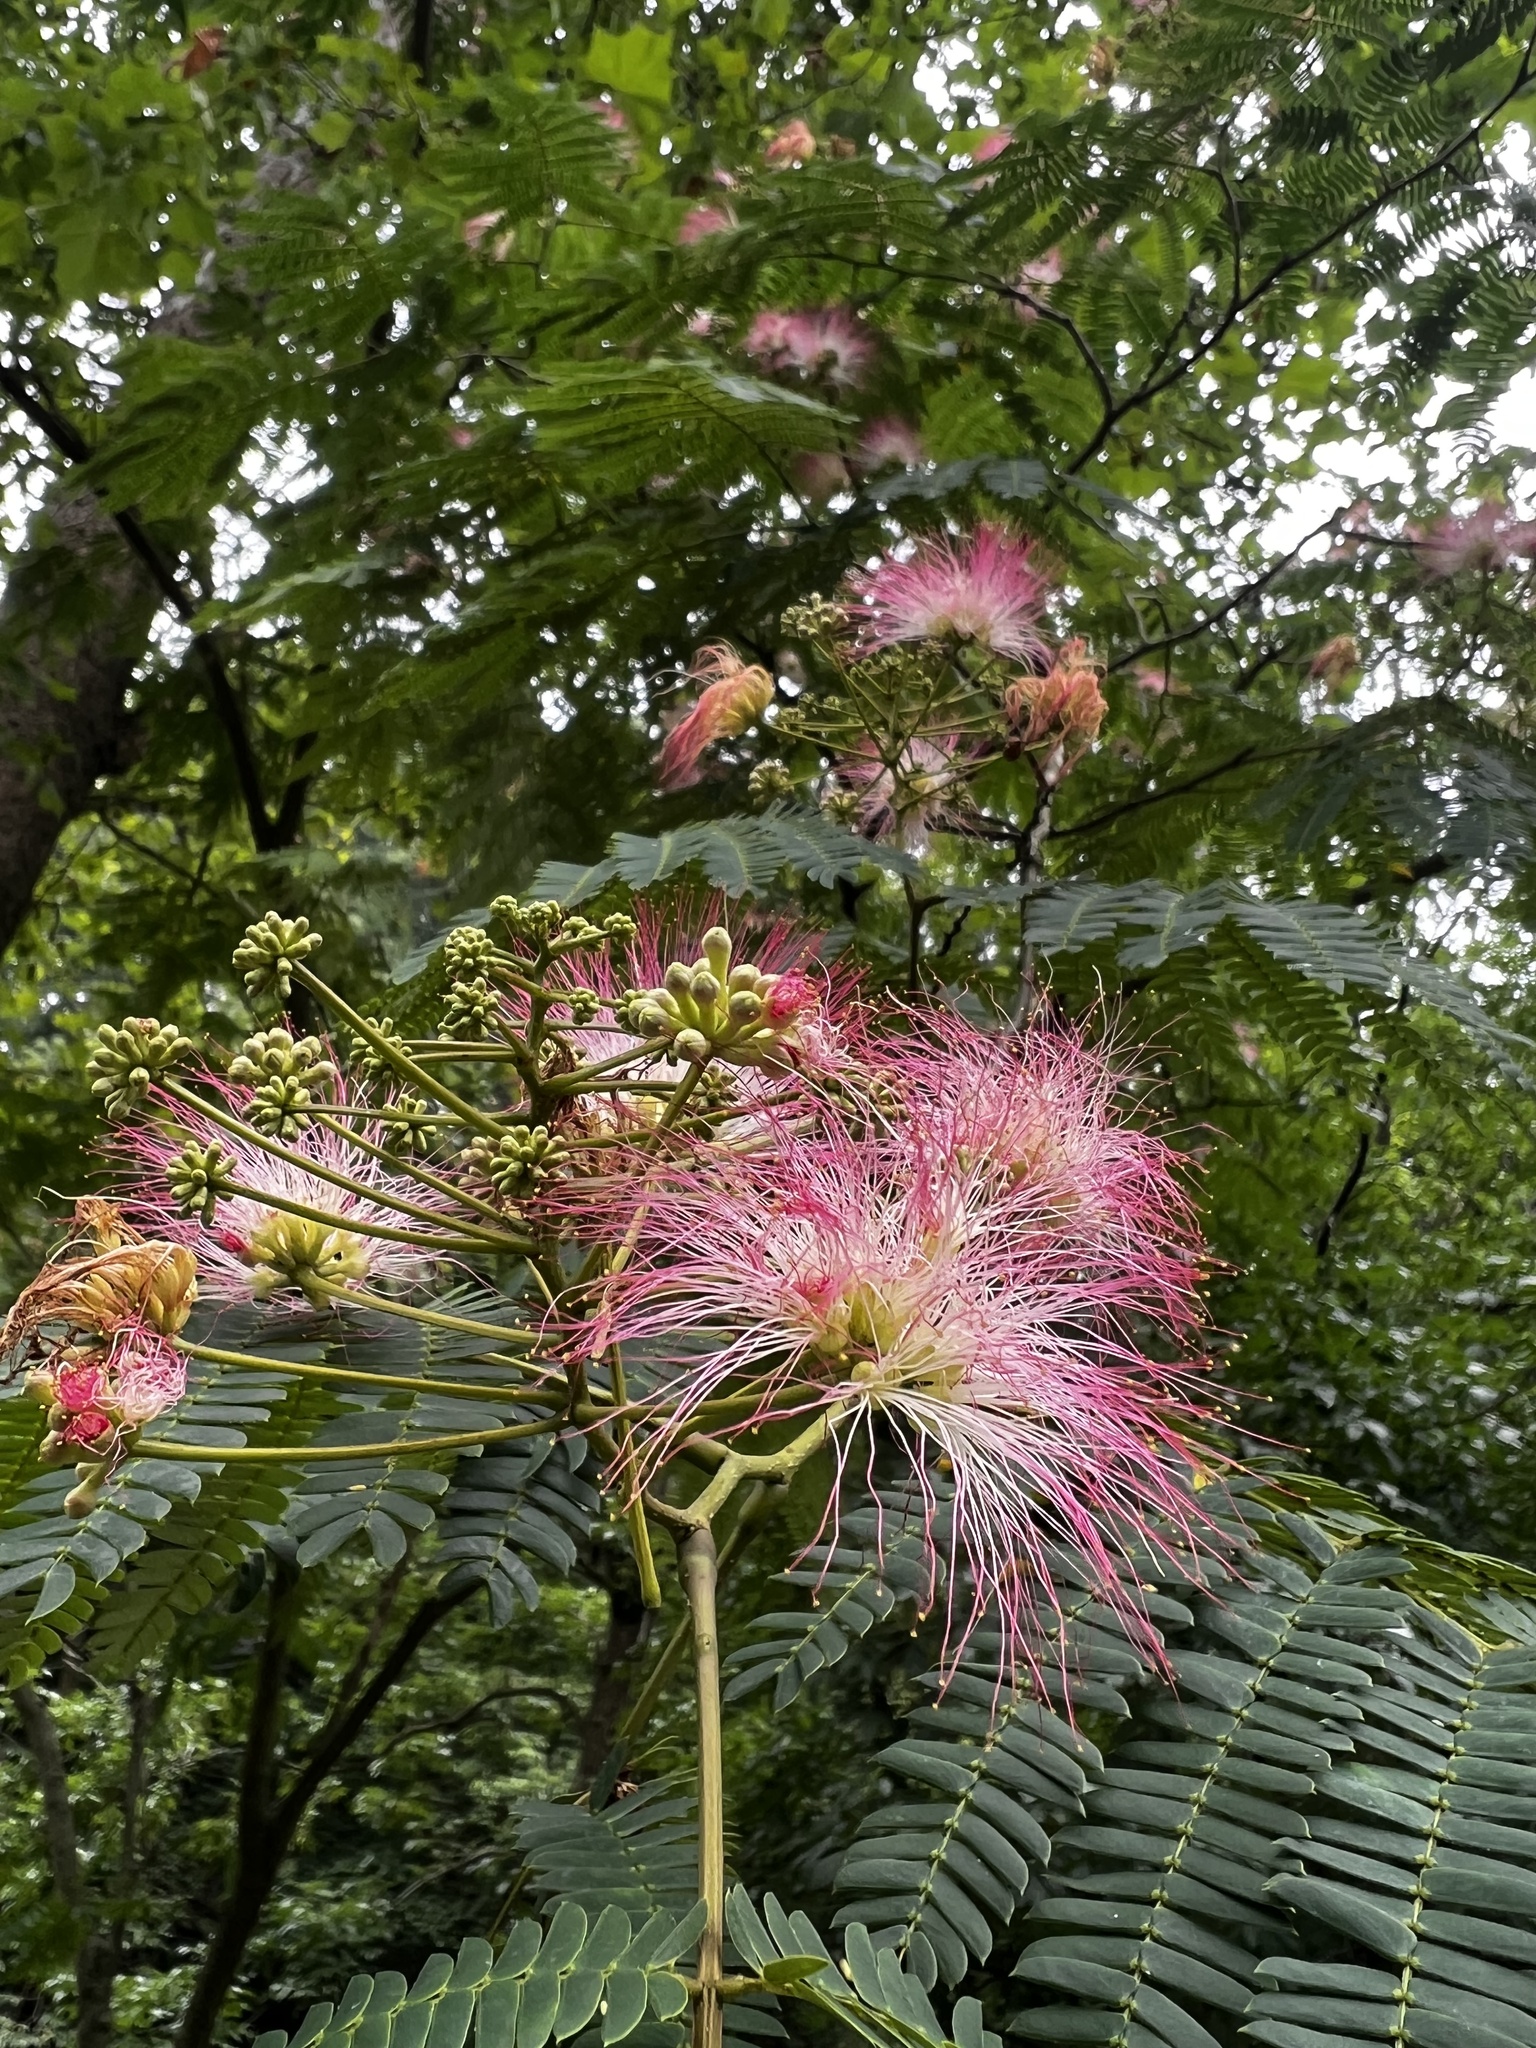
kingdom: Plantae
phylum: Tracheophyta
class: Magnoliopsida
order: Fabales
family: Fabaceae
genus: Albizia
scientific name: Albizia julibrissin
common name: Silktree
